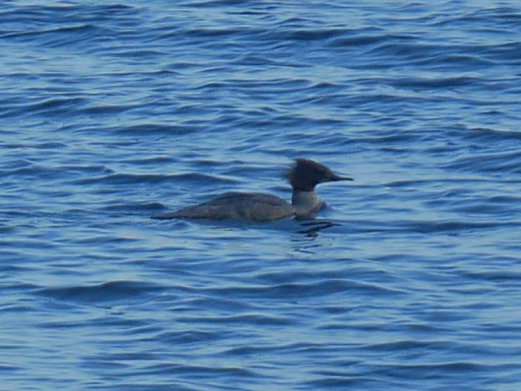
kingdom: Animalia
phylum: Chordata
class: Aves
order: Anseriformes
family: Anatidae
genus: Mergus
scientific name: Mergus merganser
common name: Common merganser
